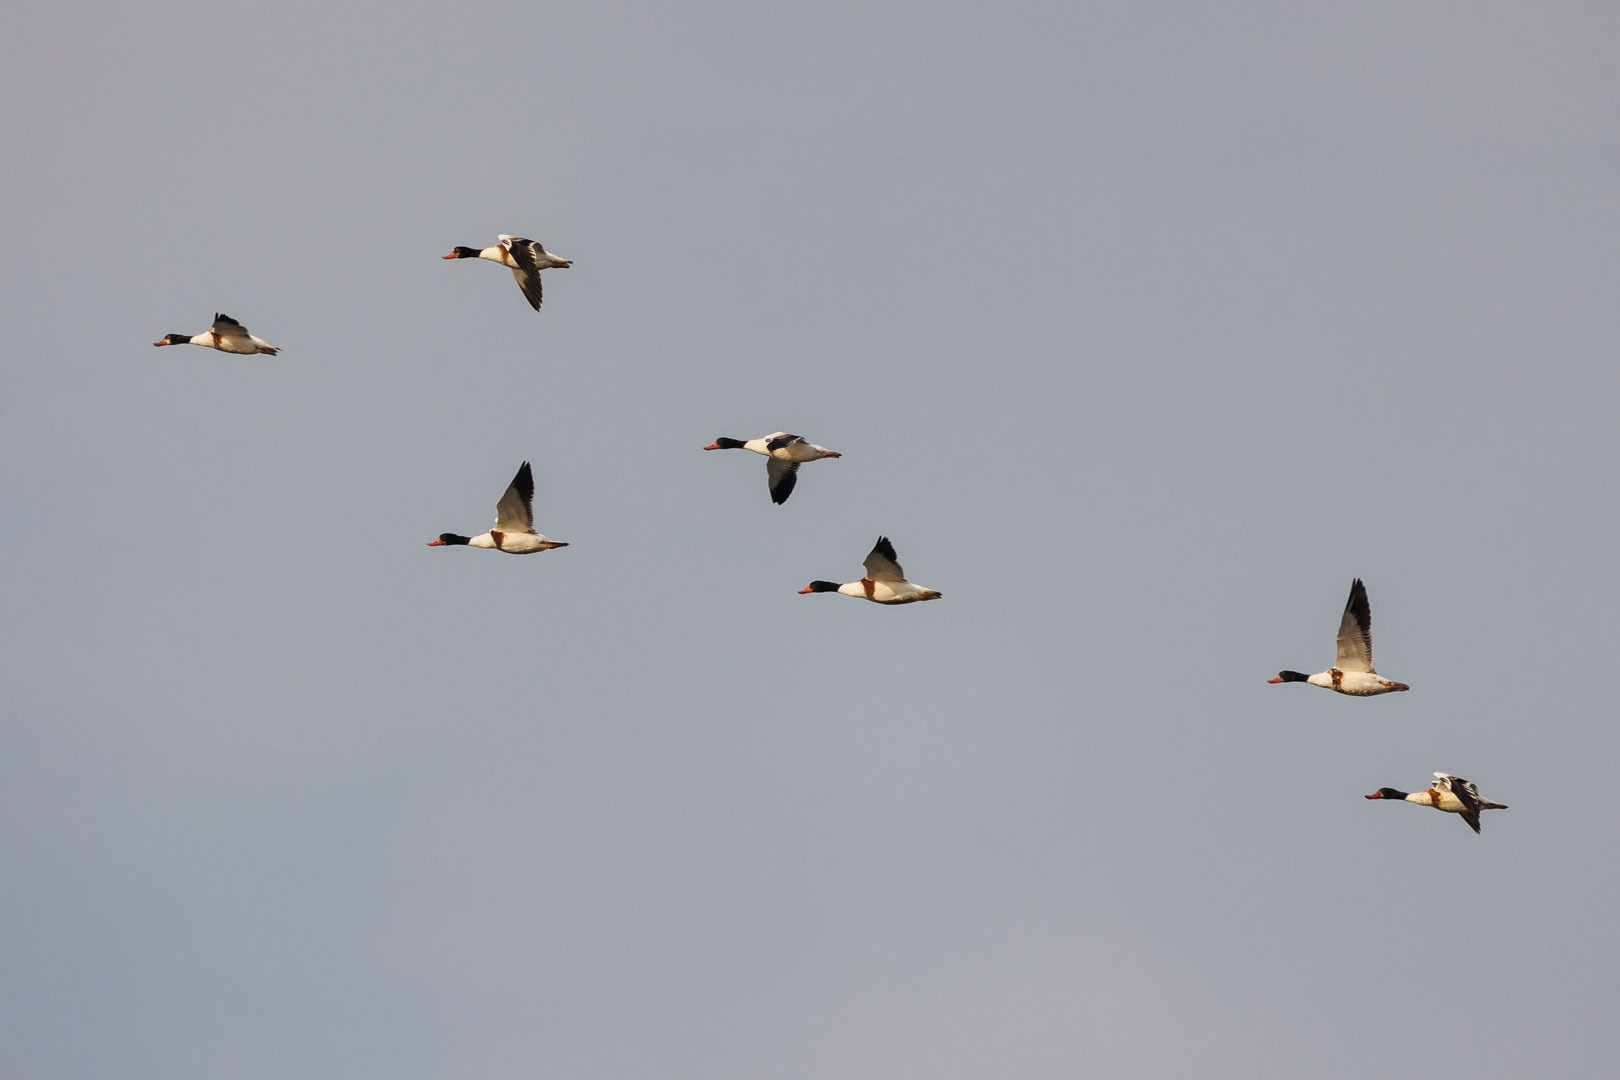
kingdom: Animalia
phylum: Chordata
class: Aves
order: Anseriformes
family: Anatidae
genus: Tadorna
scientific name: Tadorna tadorna
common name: Common shelduck
